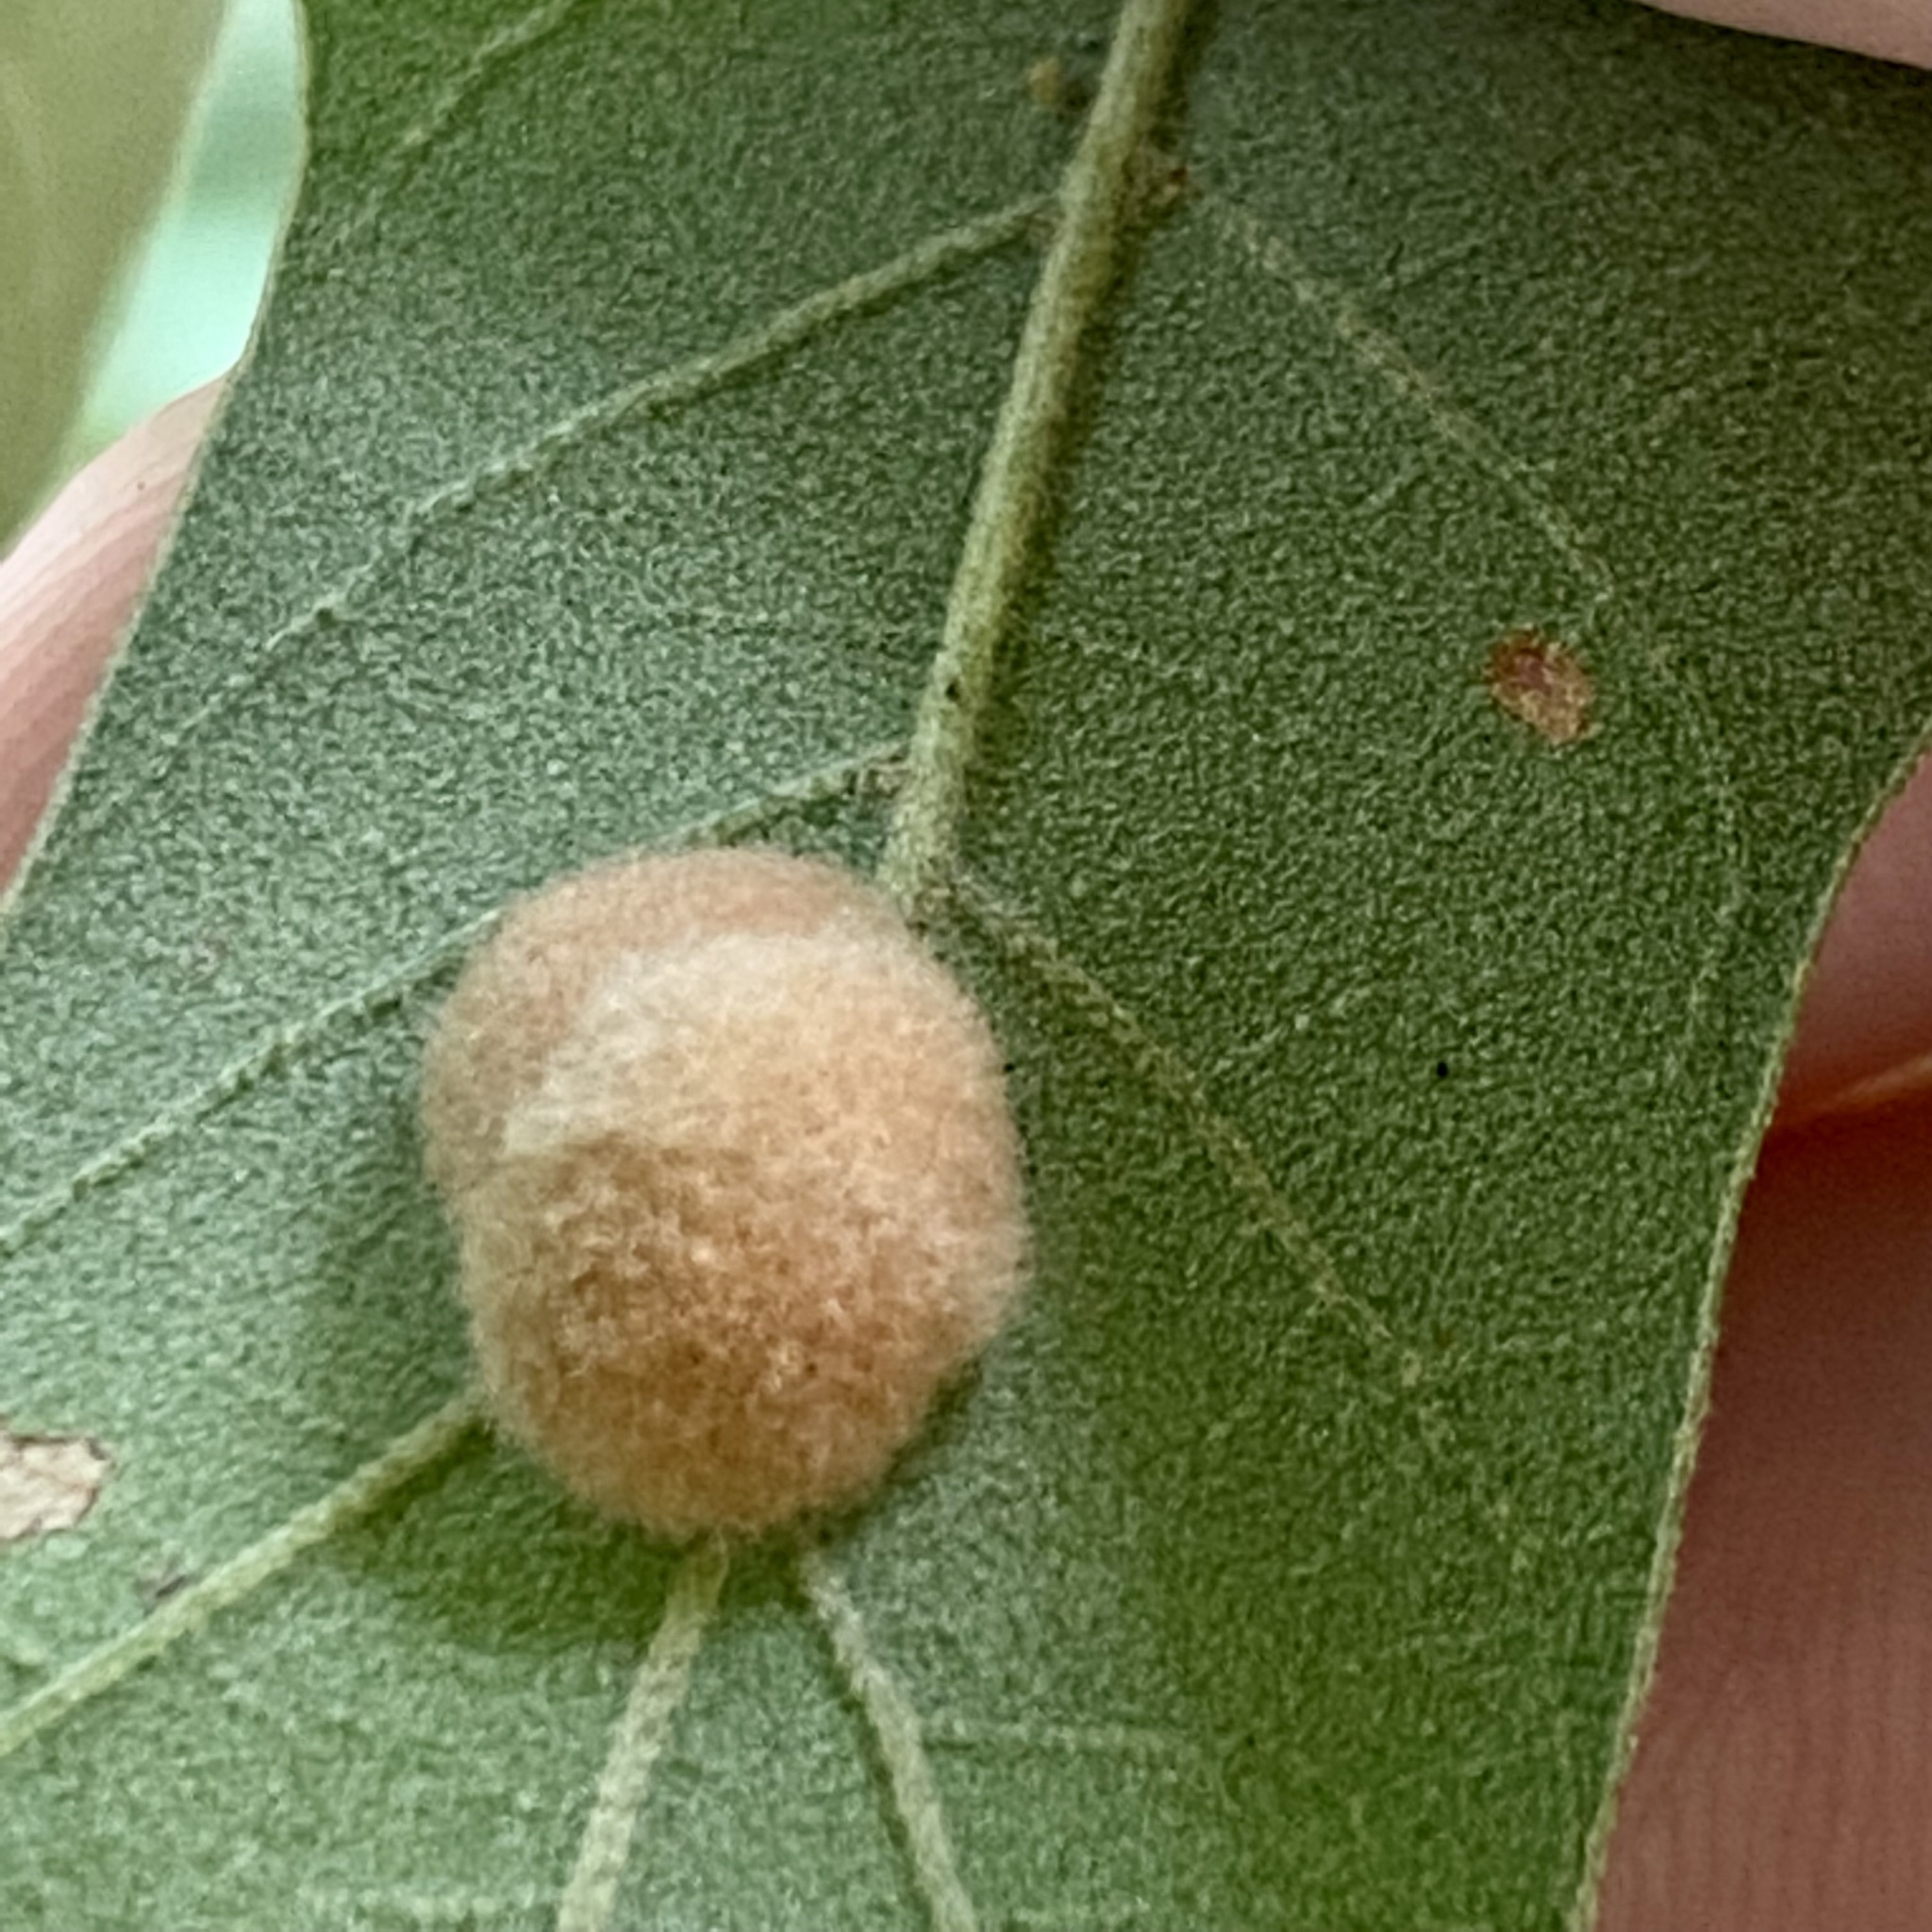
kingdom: Animalia
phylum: Arthropoda
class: Insecta
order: Hymenoptera
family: Cynipidae
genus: Callirhytis
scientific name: Callirhytis
